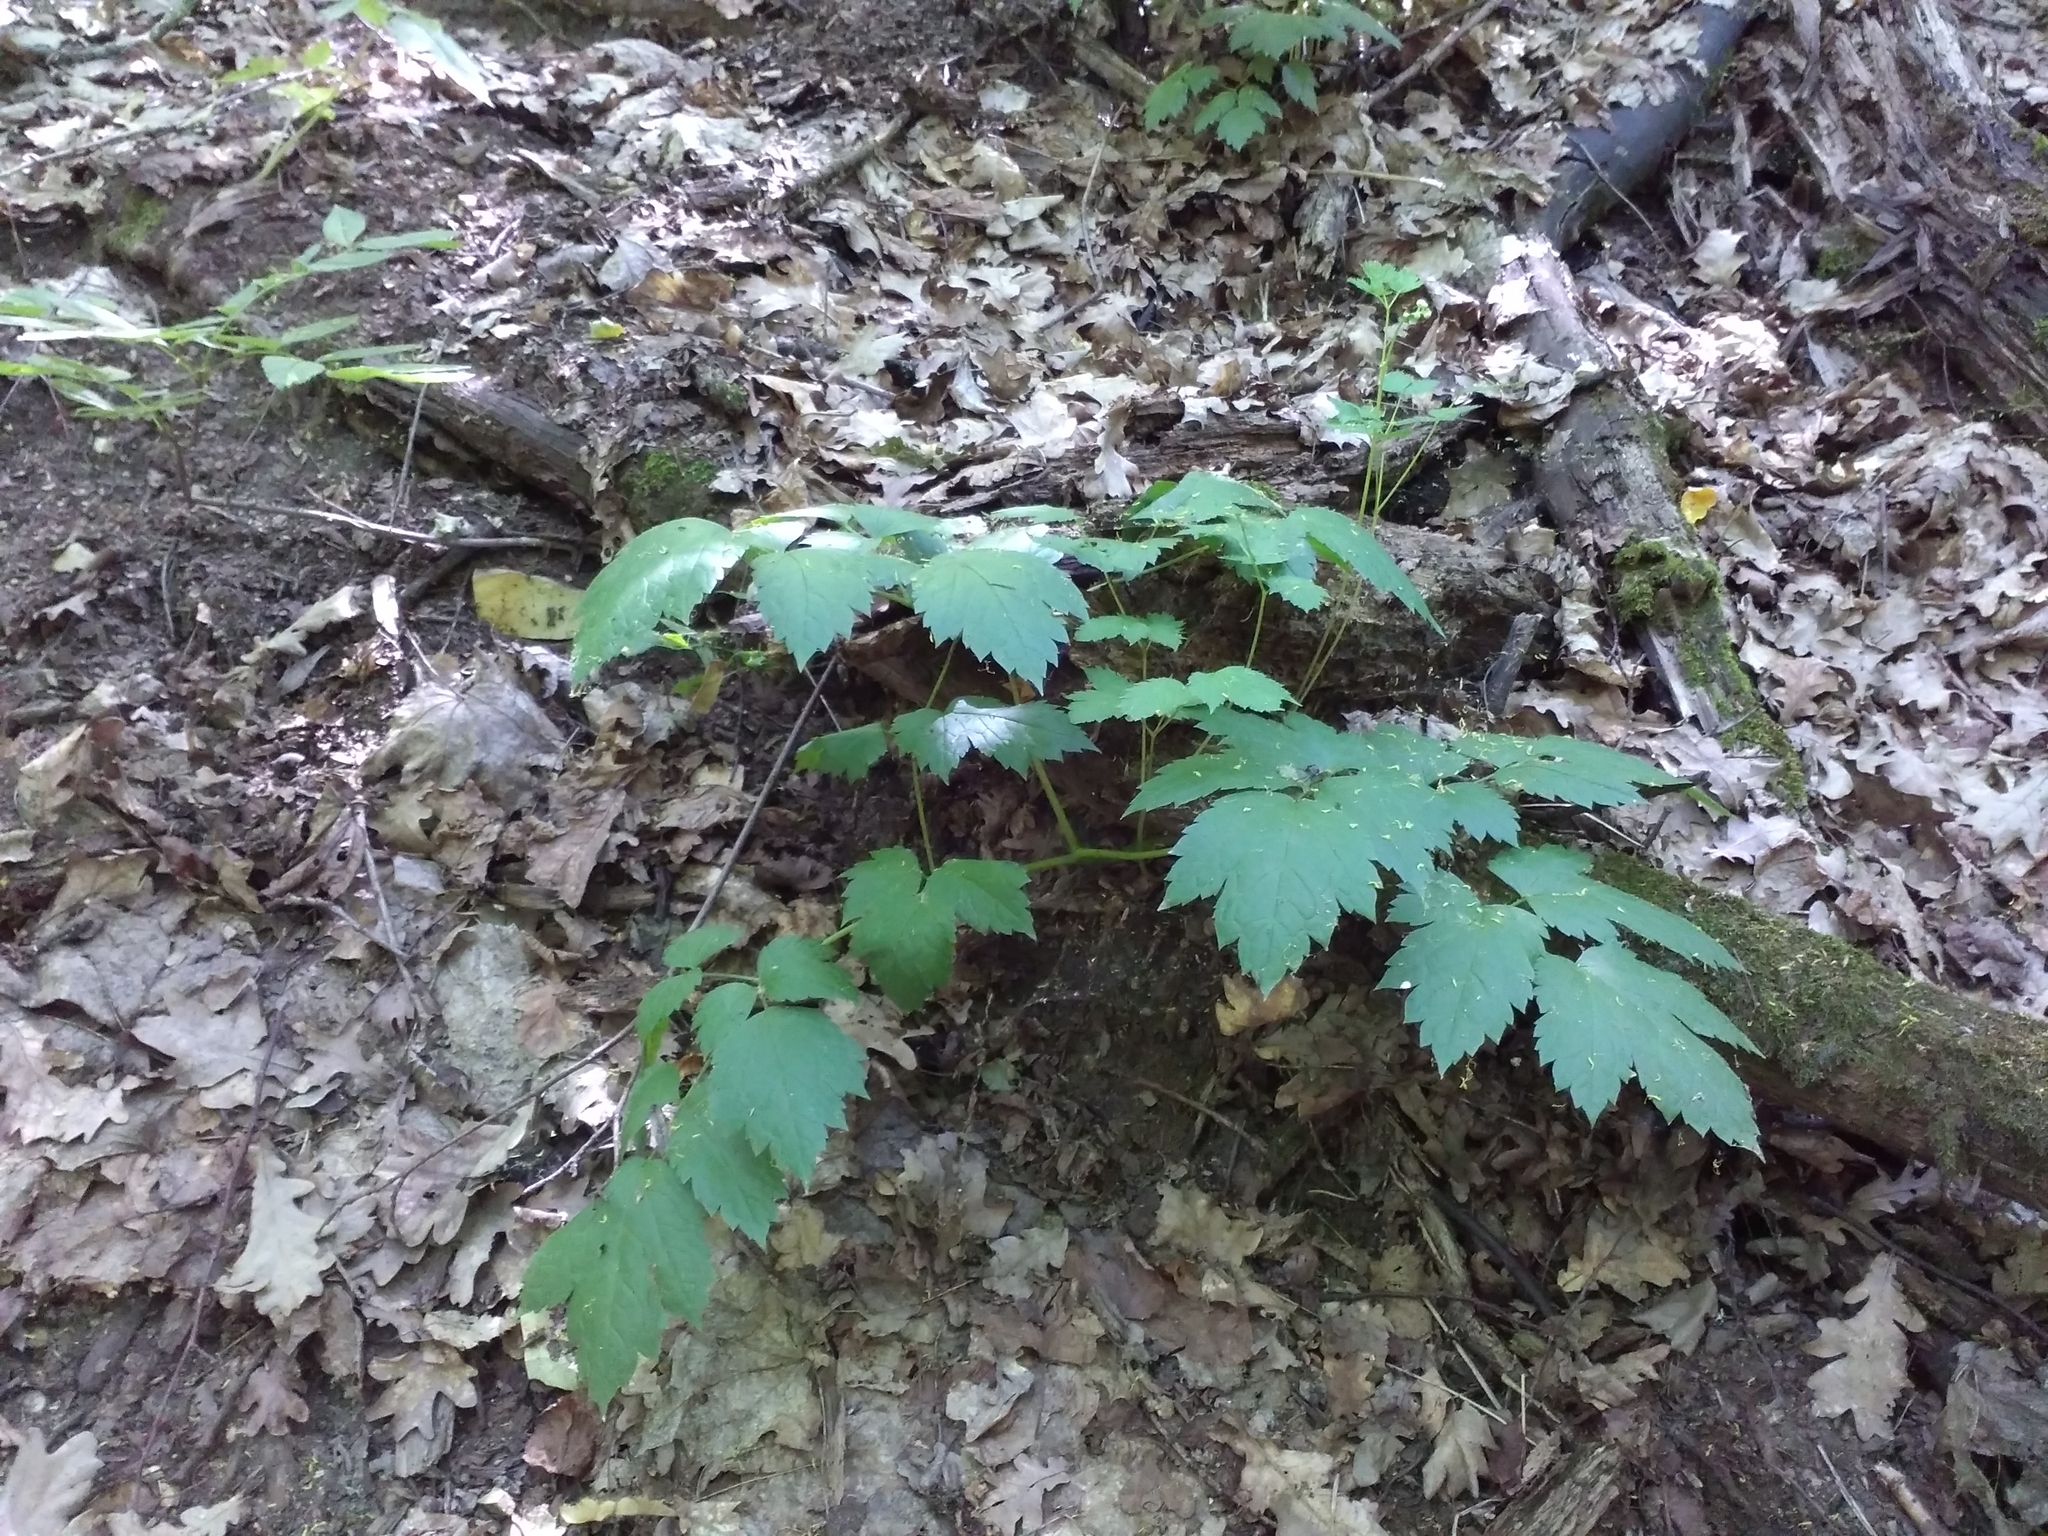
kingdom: Plantae
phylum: Tracheophyta
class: Magnoliopsida
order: Ranunculales
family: Ranunculaceae
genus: Actaea
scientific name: Actaea spicata
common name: Baneberry
